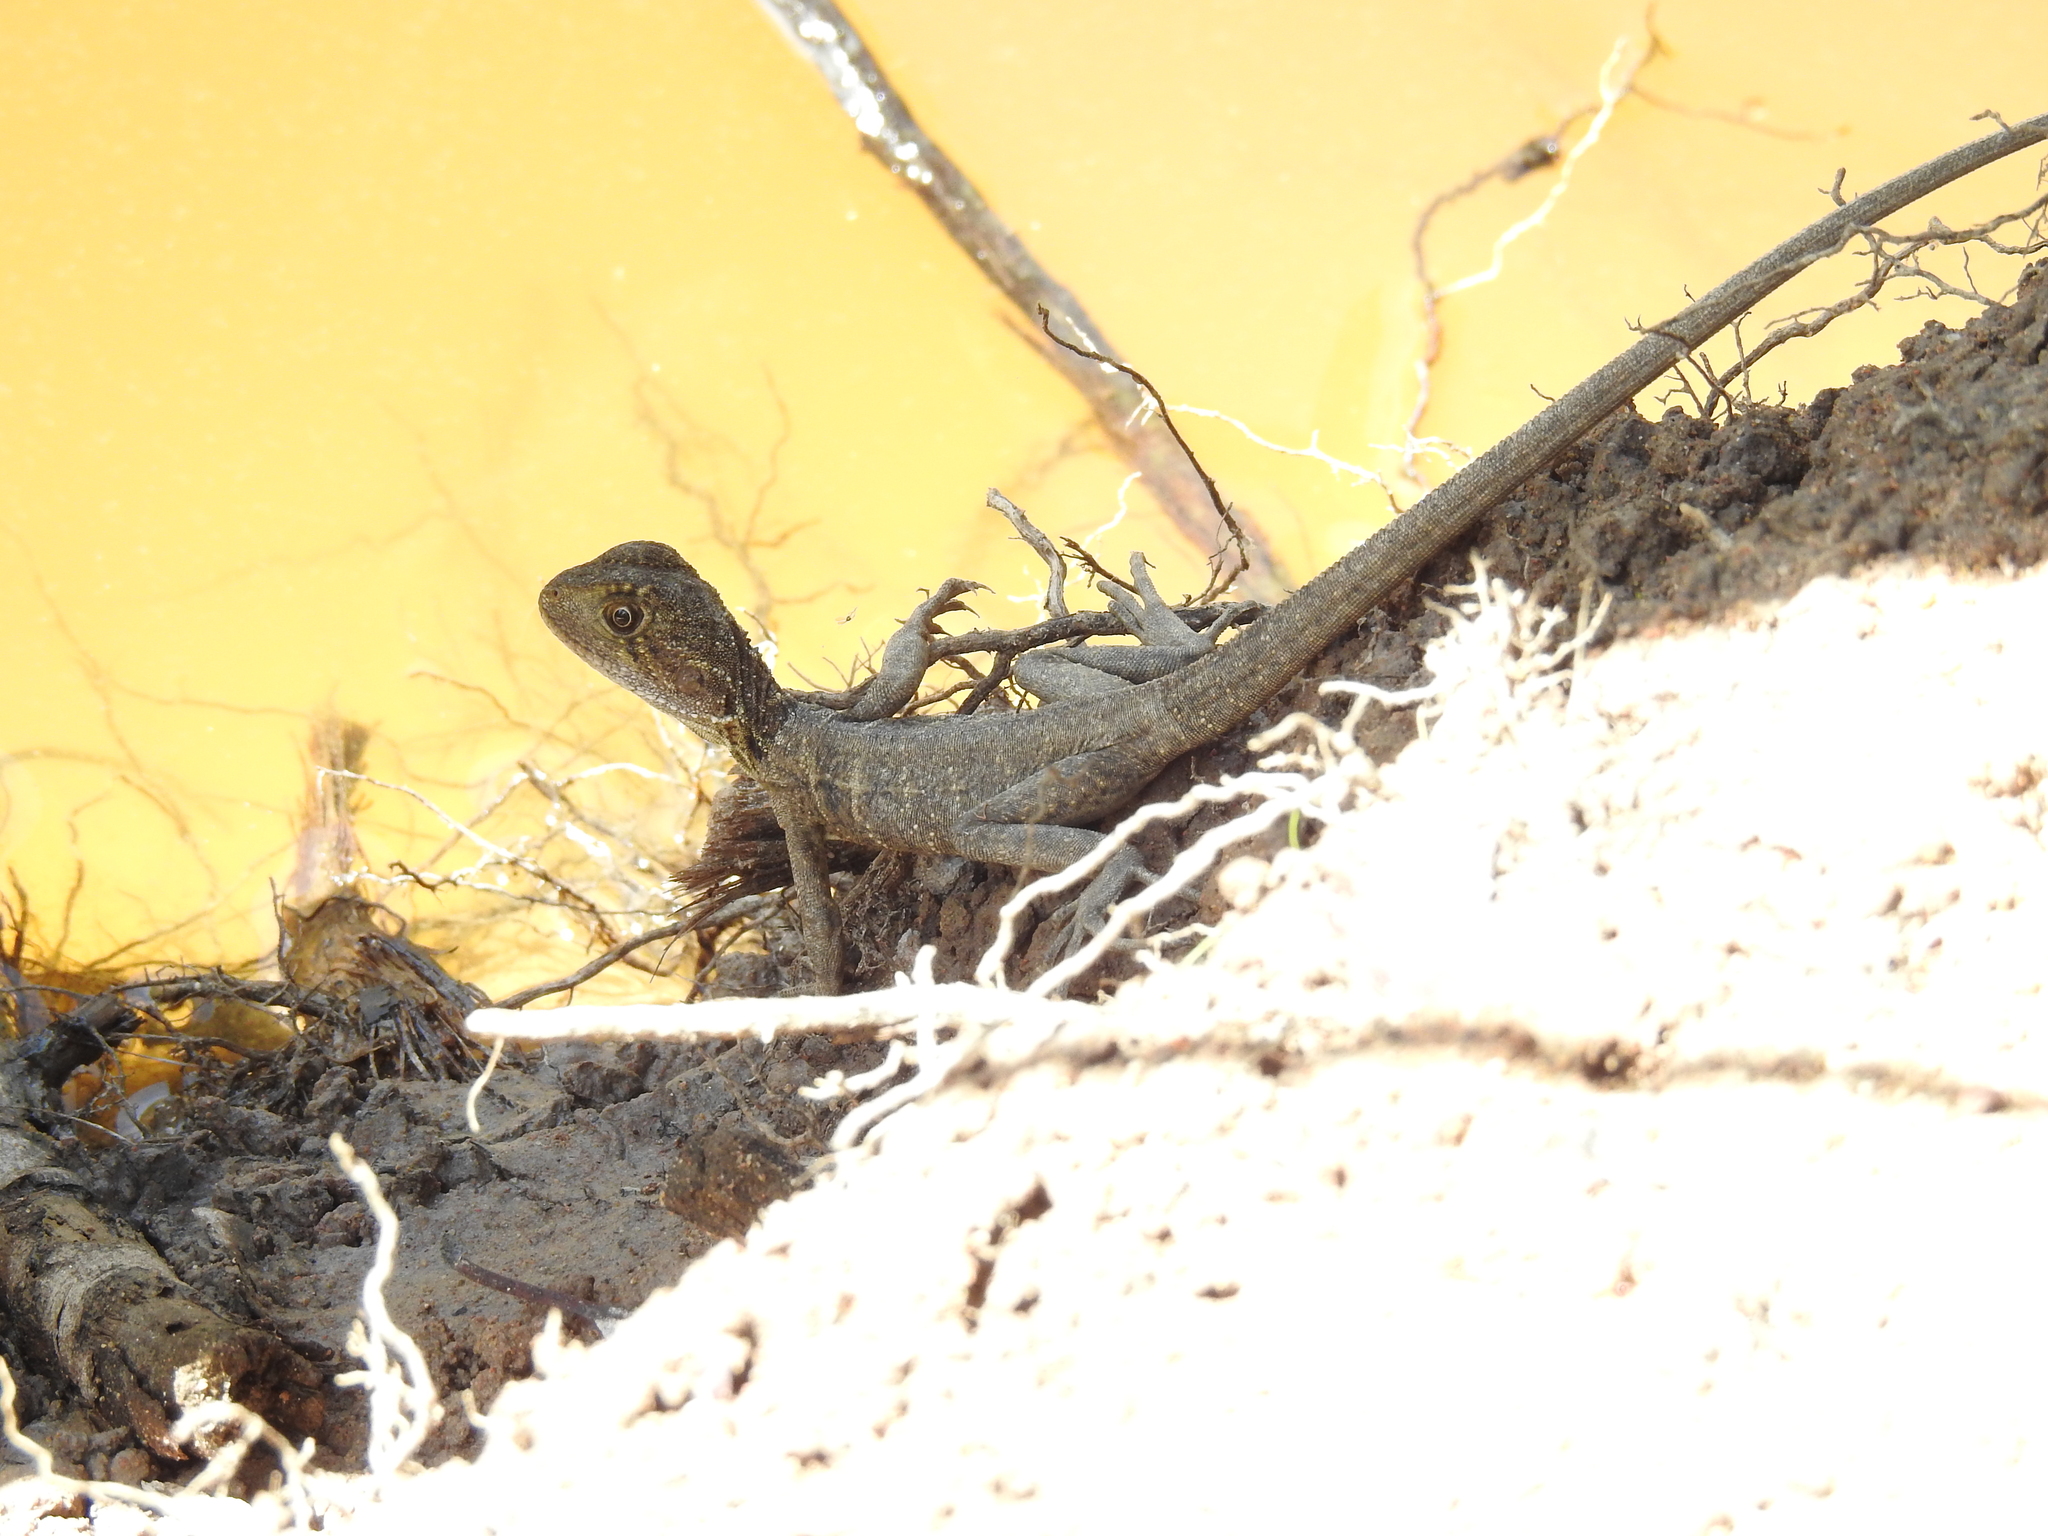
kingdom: Animalia
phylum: Chordata
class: Squamata
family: Agamidae
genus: Intellagama
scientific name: Intellagama lesueurii
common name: Eastern water dragon
